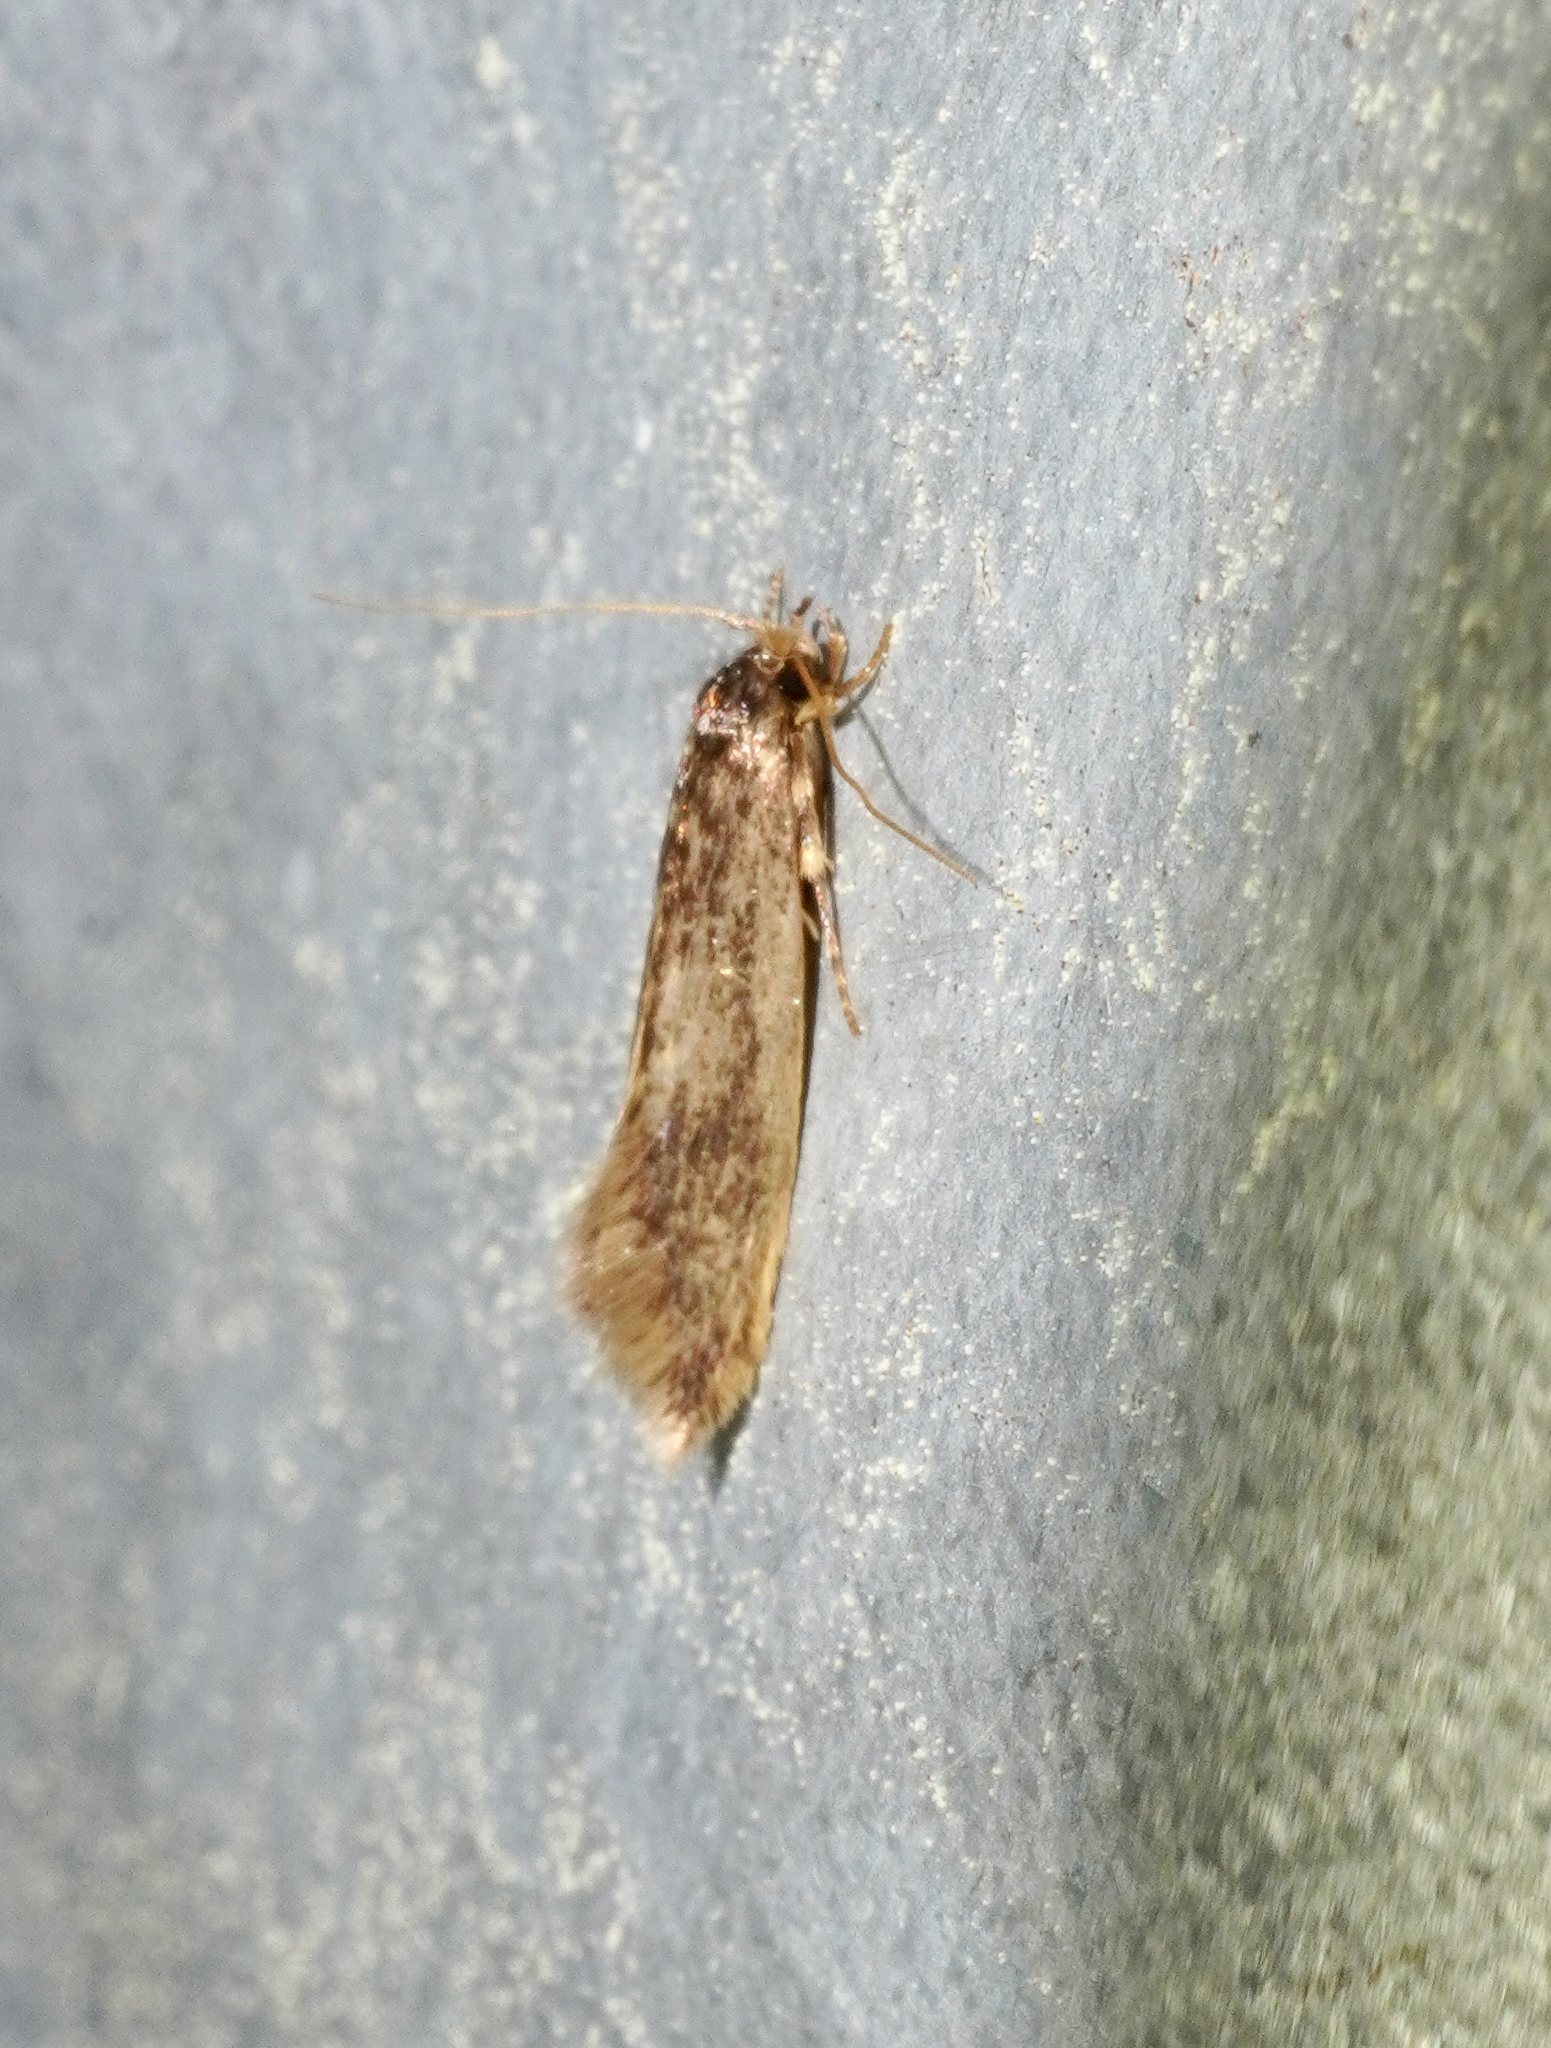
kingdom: Animalia
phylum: Arthropoda
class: Insecta
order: Lepidoptera
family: Tineidae
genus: Opogona
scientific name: Opogona omoscopa
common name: Moth
